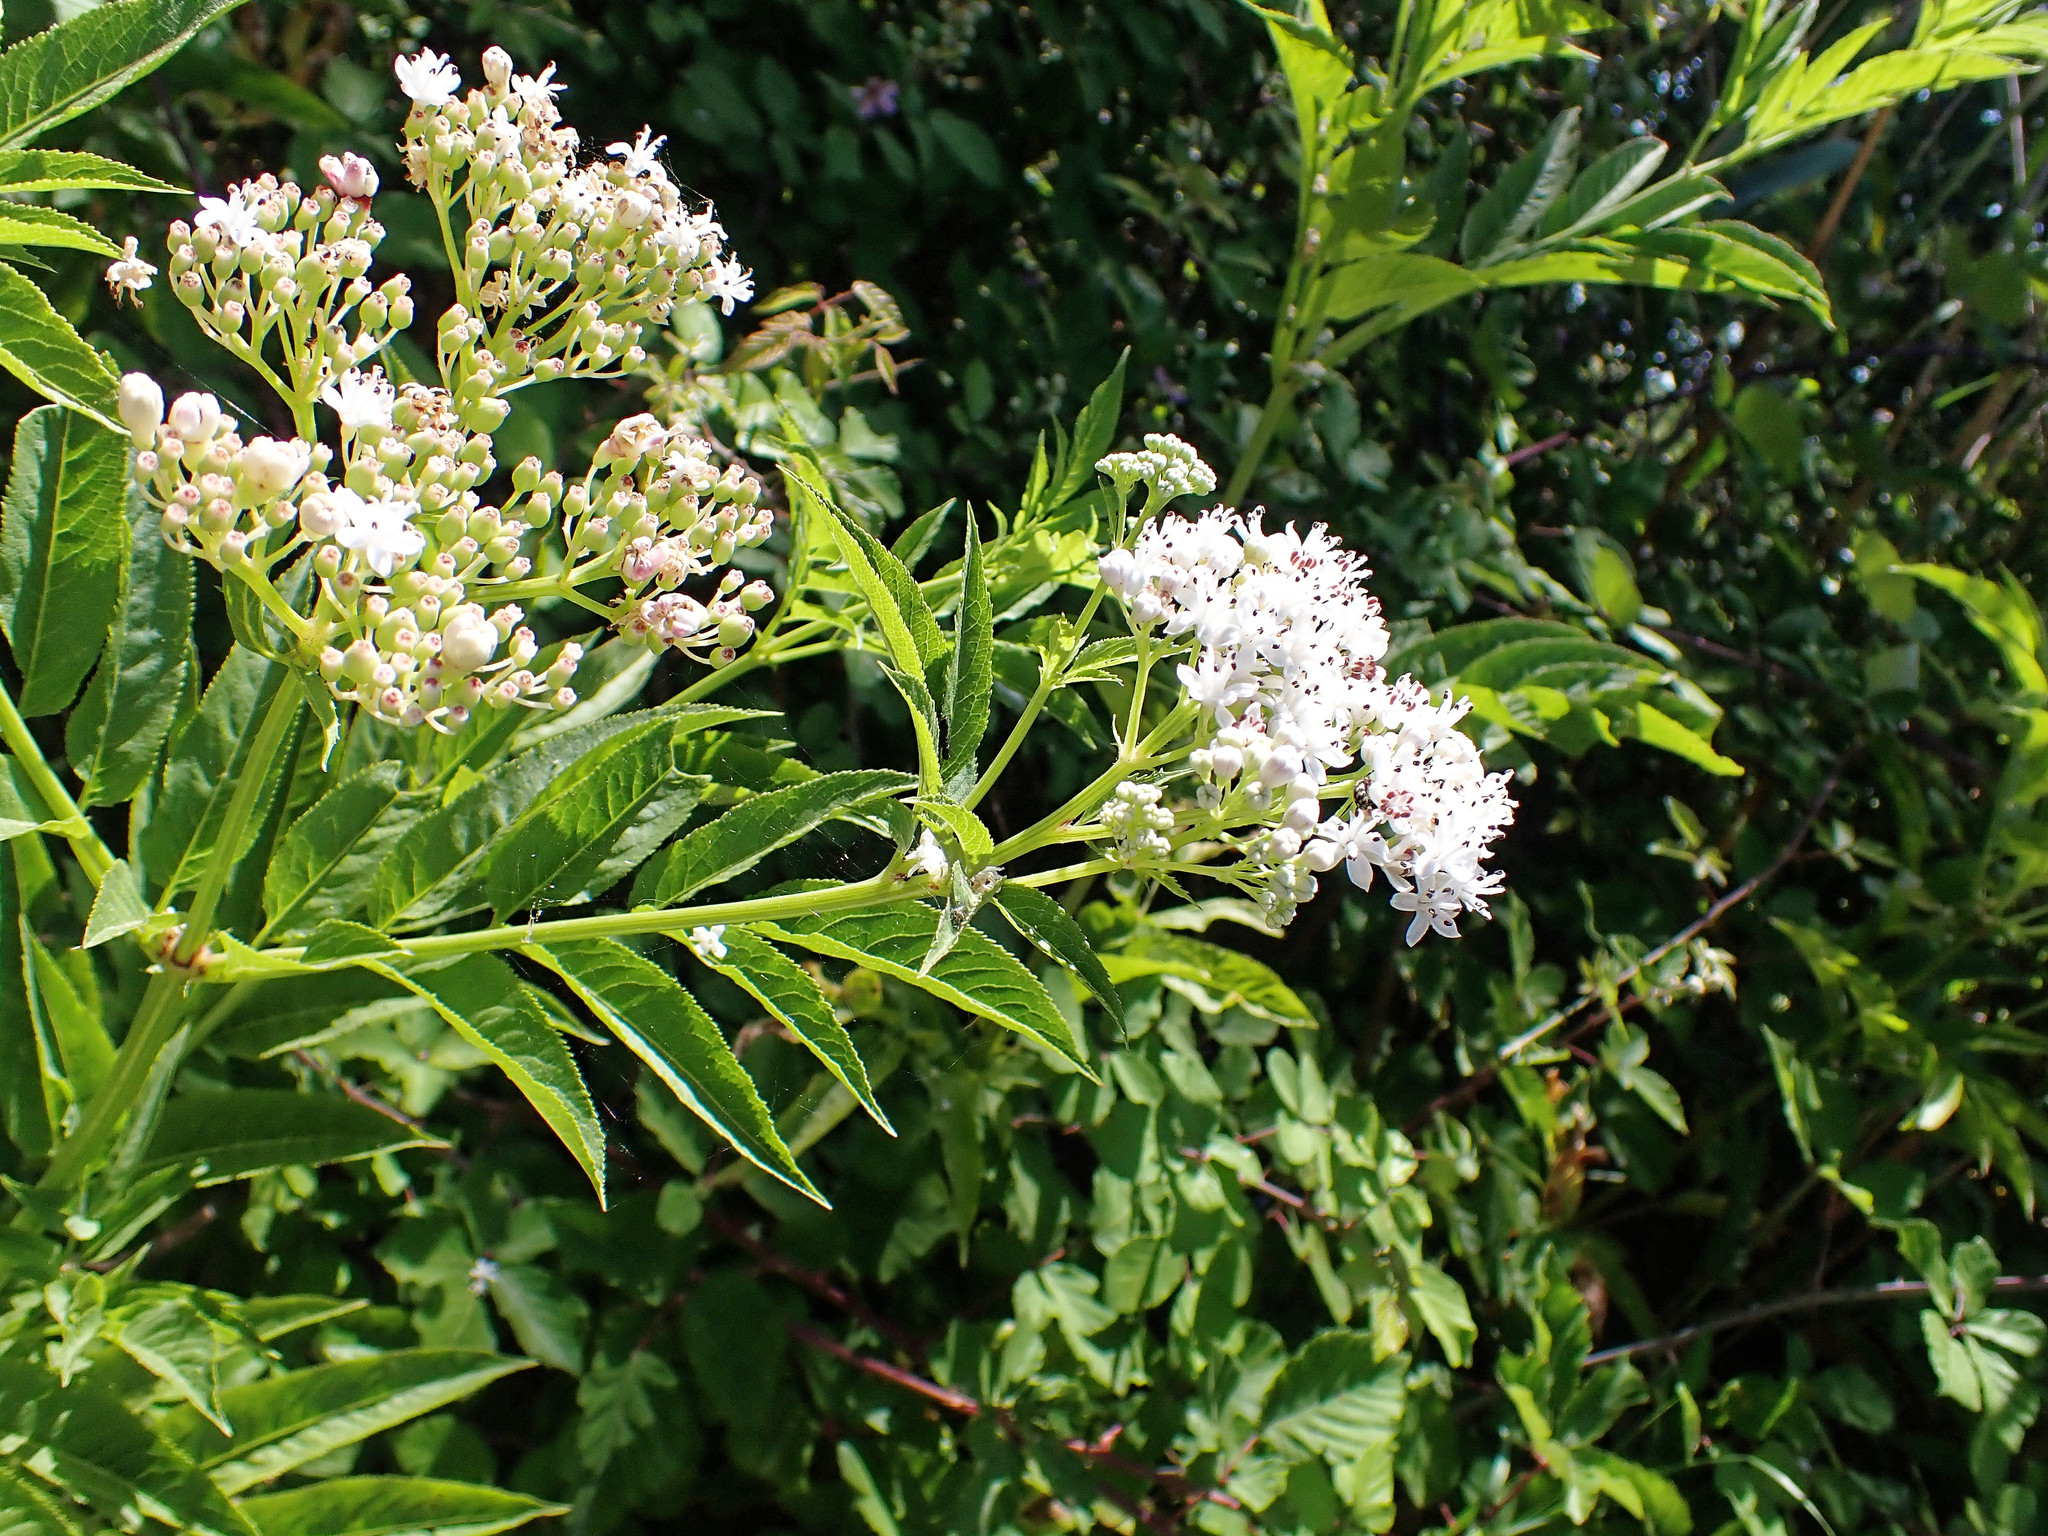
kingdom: Plantae
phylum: Tracheophyta
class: Magnoliopsida
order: Dipsacales
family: Viburnaceae
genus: Sambucus
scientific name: Sambucus ebulus
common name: Dwarf elder
